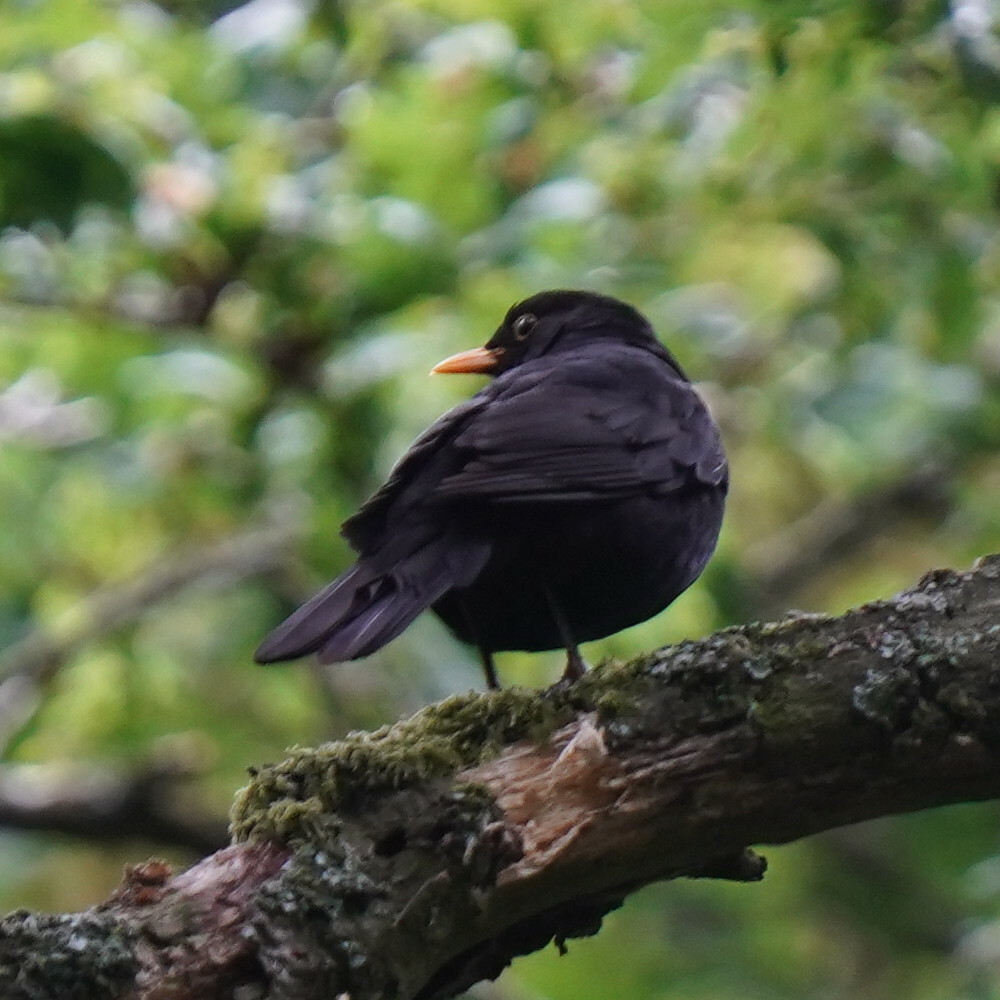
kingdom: Animalia
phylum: Chordata
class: Aves
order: Passeriformes
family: Turdidae
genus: Turdus
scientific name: Turdus merula
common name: Common blackbird
